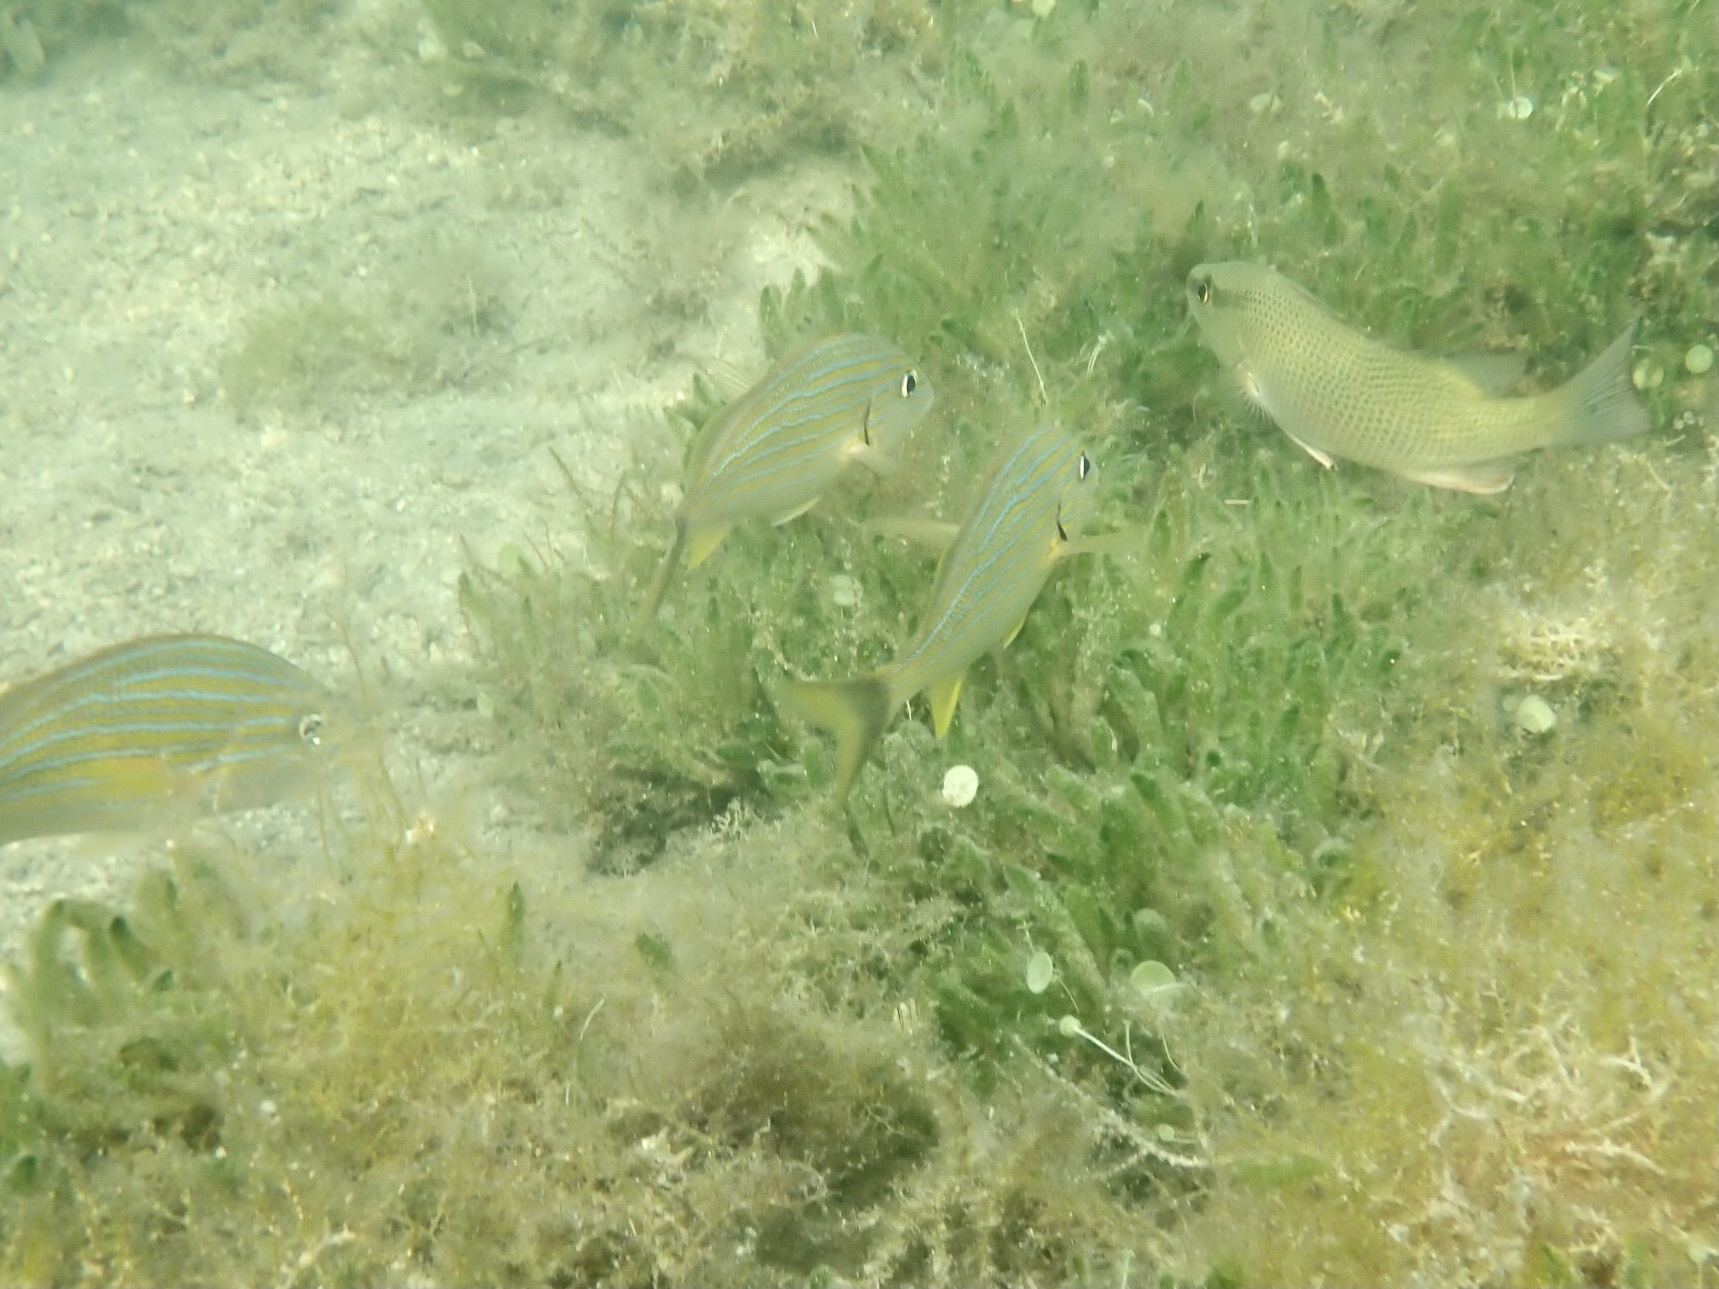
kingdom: Animalia
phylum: Chordata
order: Perciformes
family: Haemulidae
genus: Haemulon
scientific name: Haemulon sciurus
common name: Bluestriped grunt
